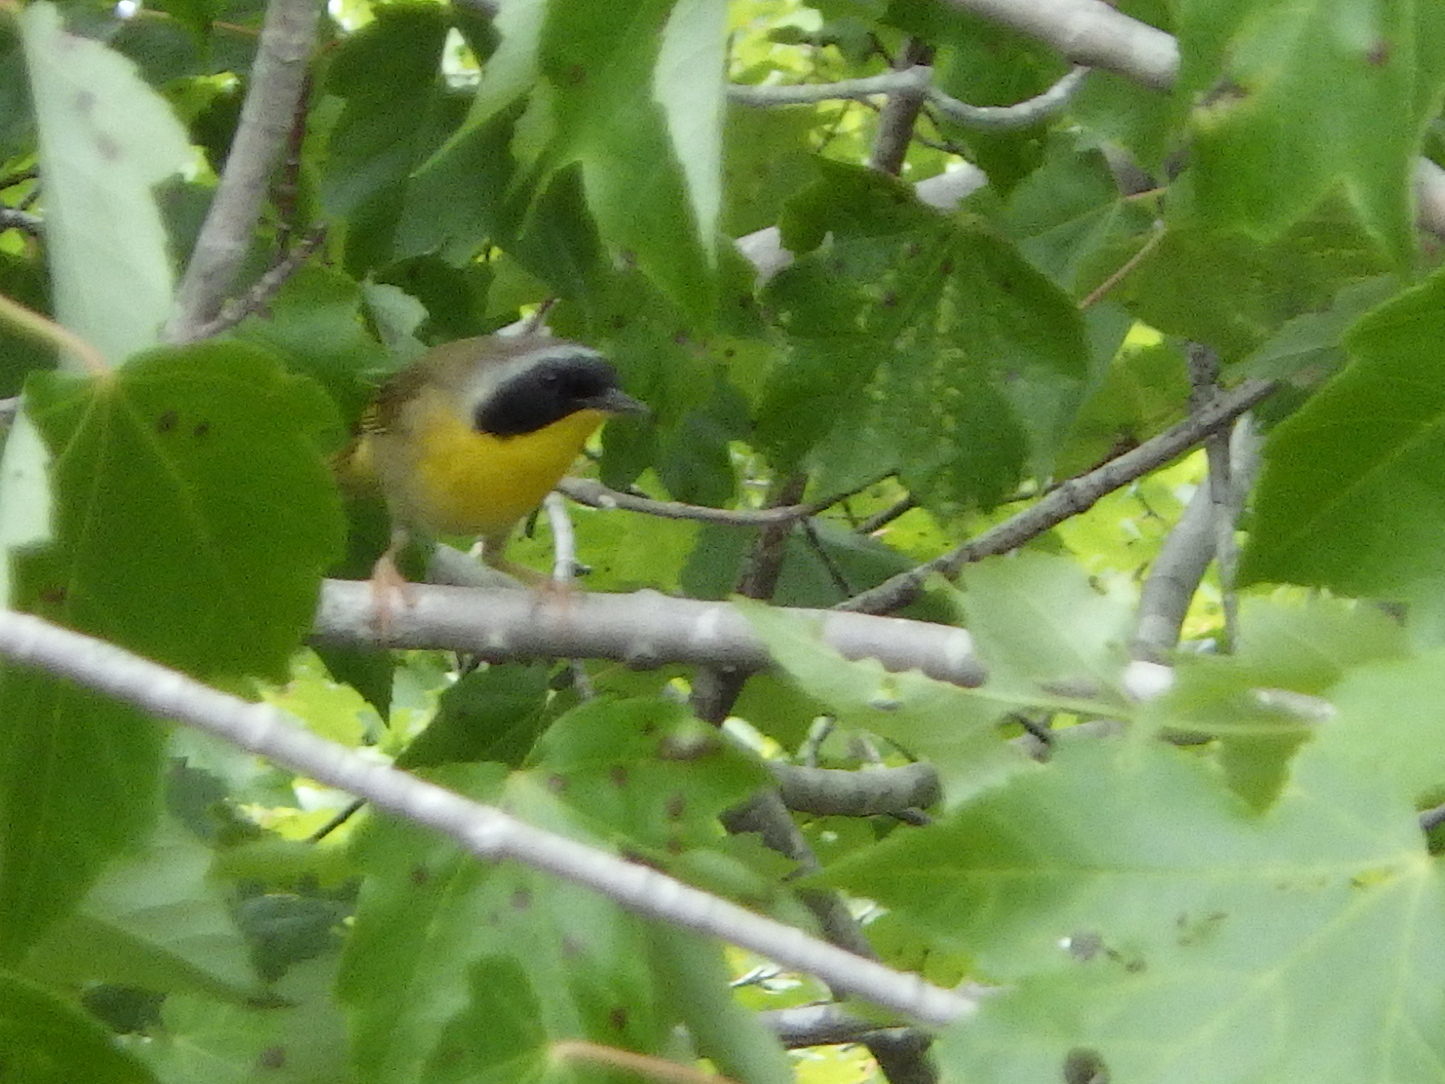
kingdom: Animalia
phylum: Chordata
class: Aves
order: Passeriformes
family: Parulidae
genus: Geothlypis
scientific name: Geothlypis trichas
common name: Common yellowthroat
